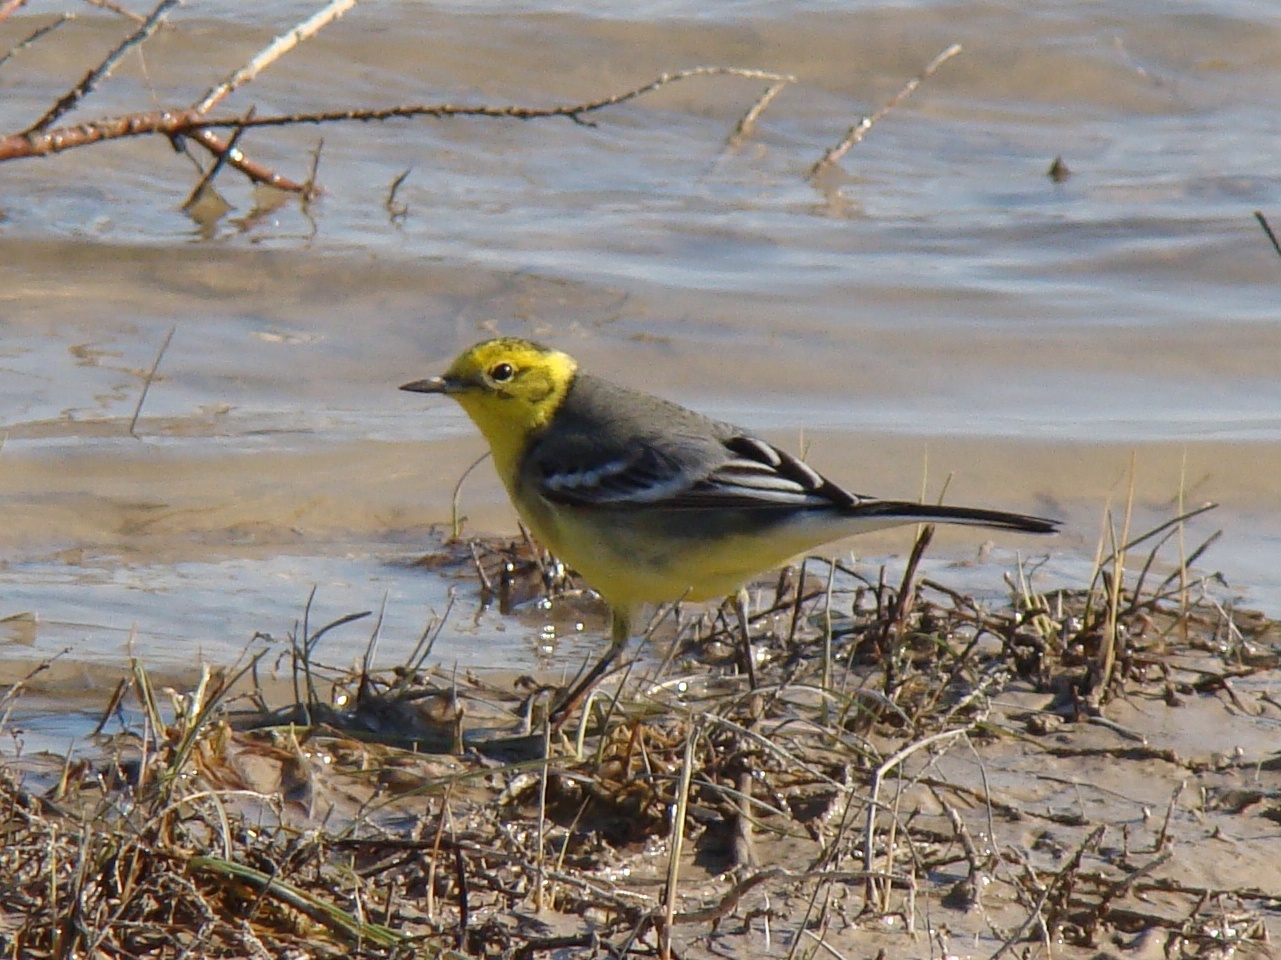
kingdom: Animalia
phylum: Chordata
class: Aves
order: Passeriformes
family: Motacillidae
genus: Motacilla
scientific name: Motacilla citreola
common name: Citrine wagtail
